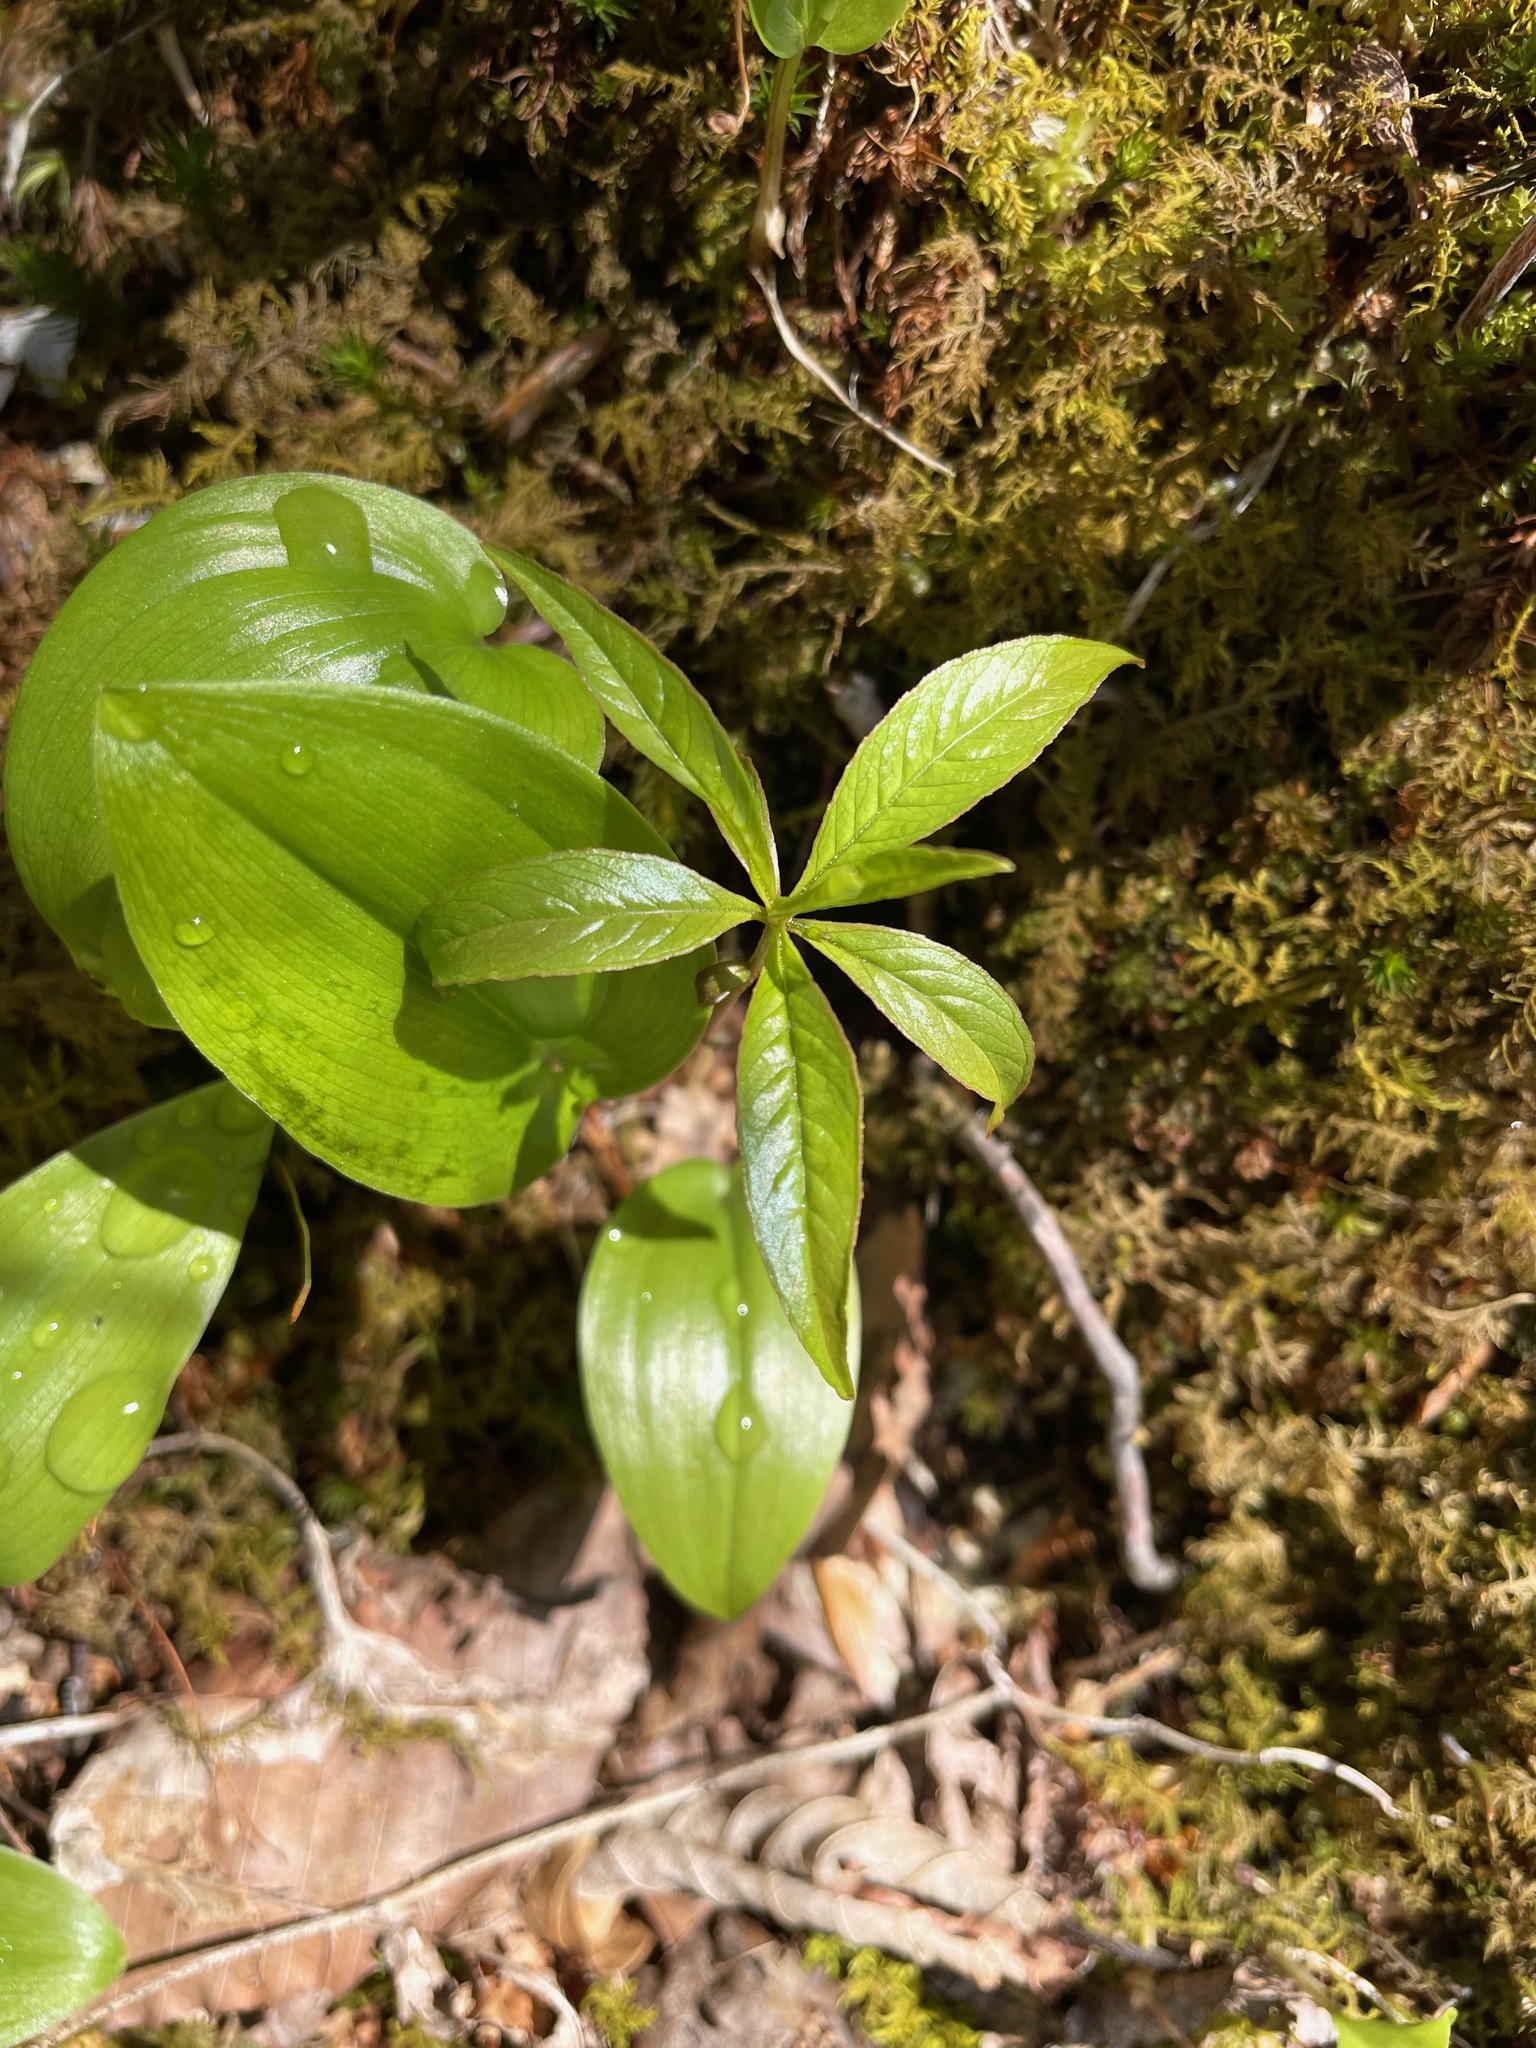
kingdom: Plantae
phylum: Tracheophyta
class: Magnoliopsida
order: Ericales
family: Primulaceae
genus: Lysimachia
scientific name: Lysimachia borealis
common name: American starflower
